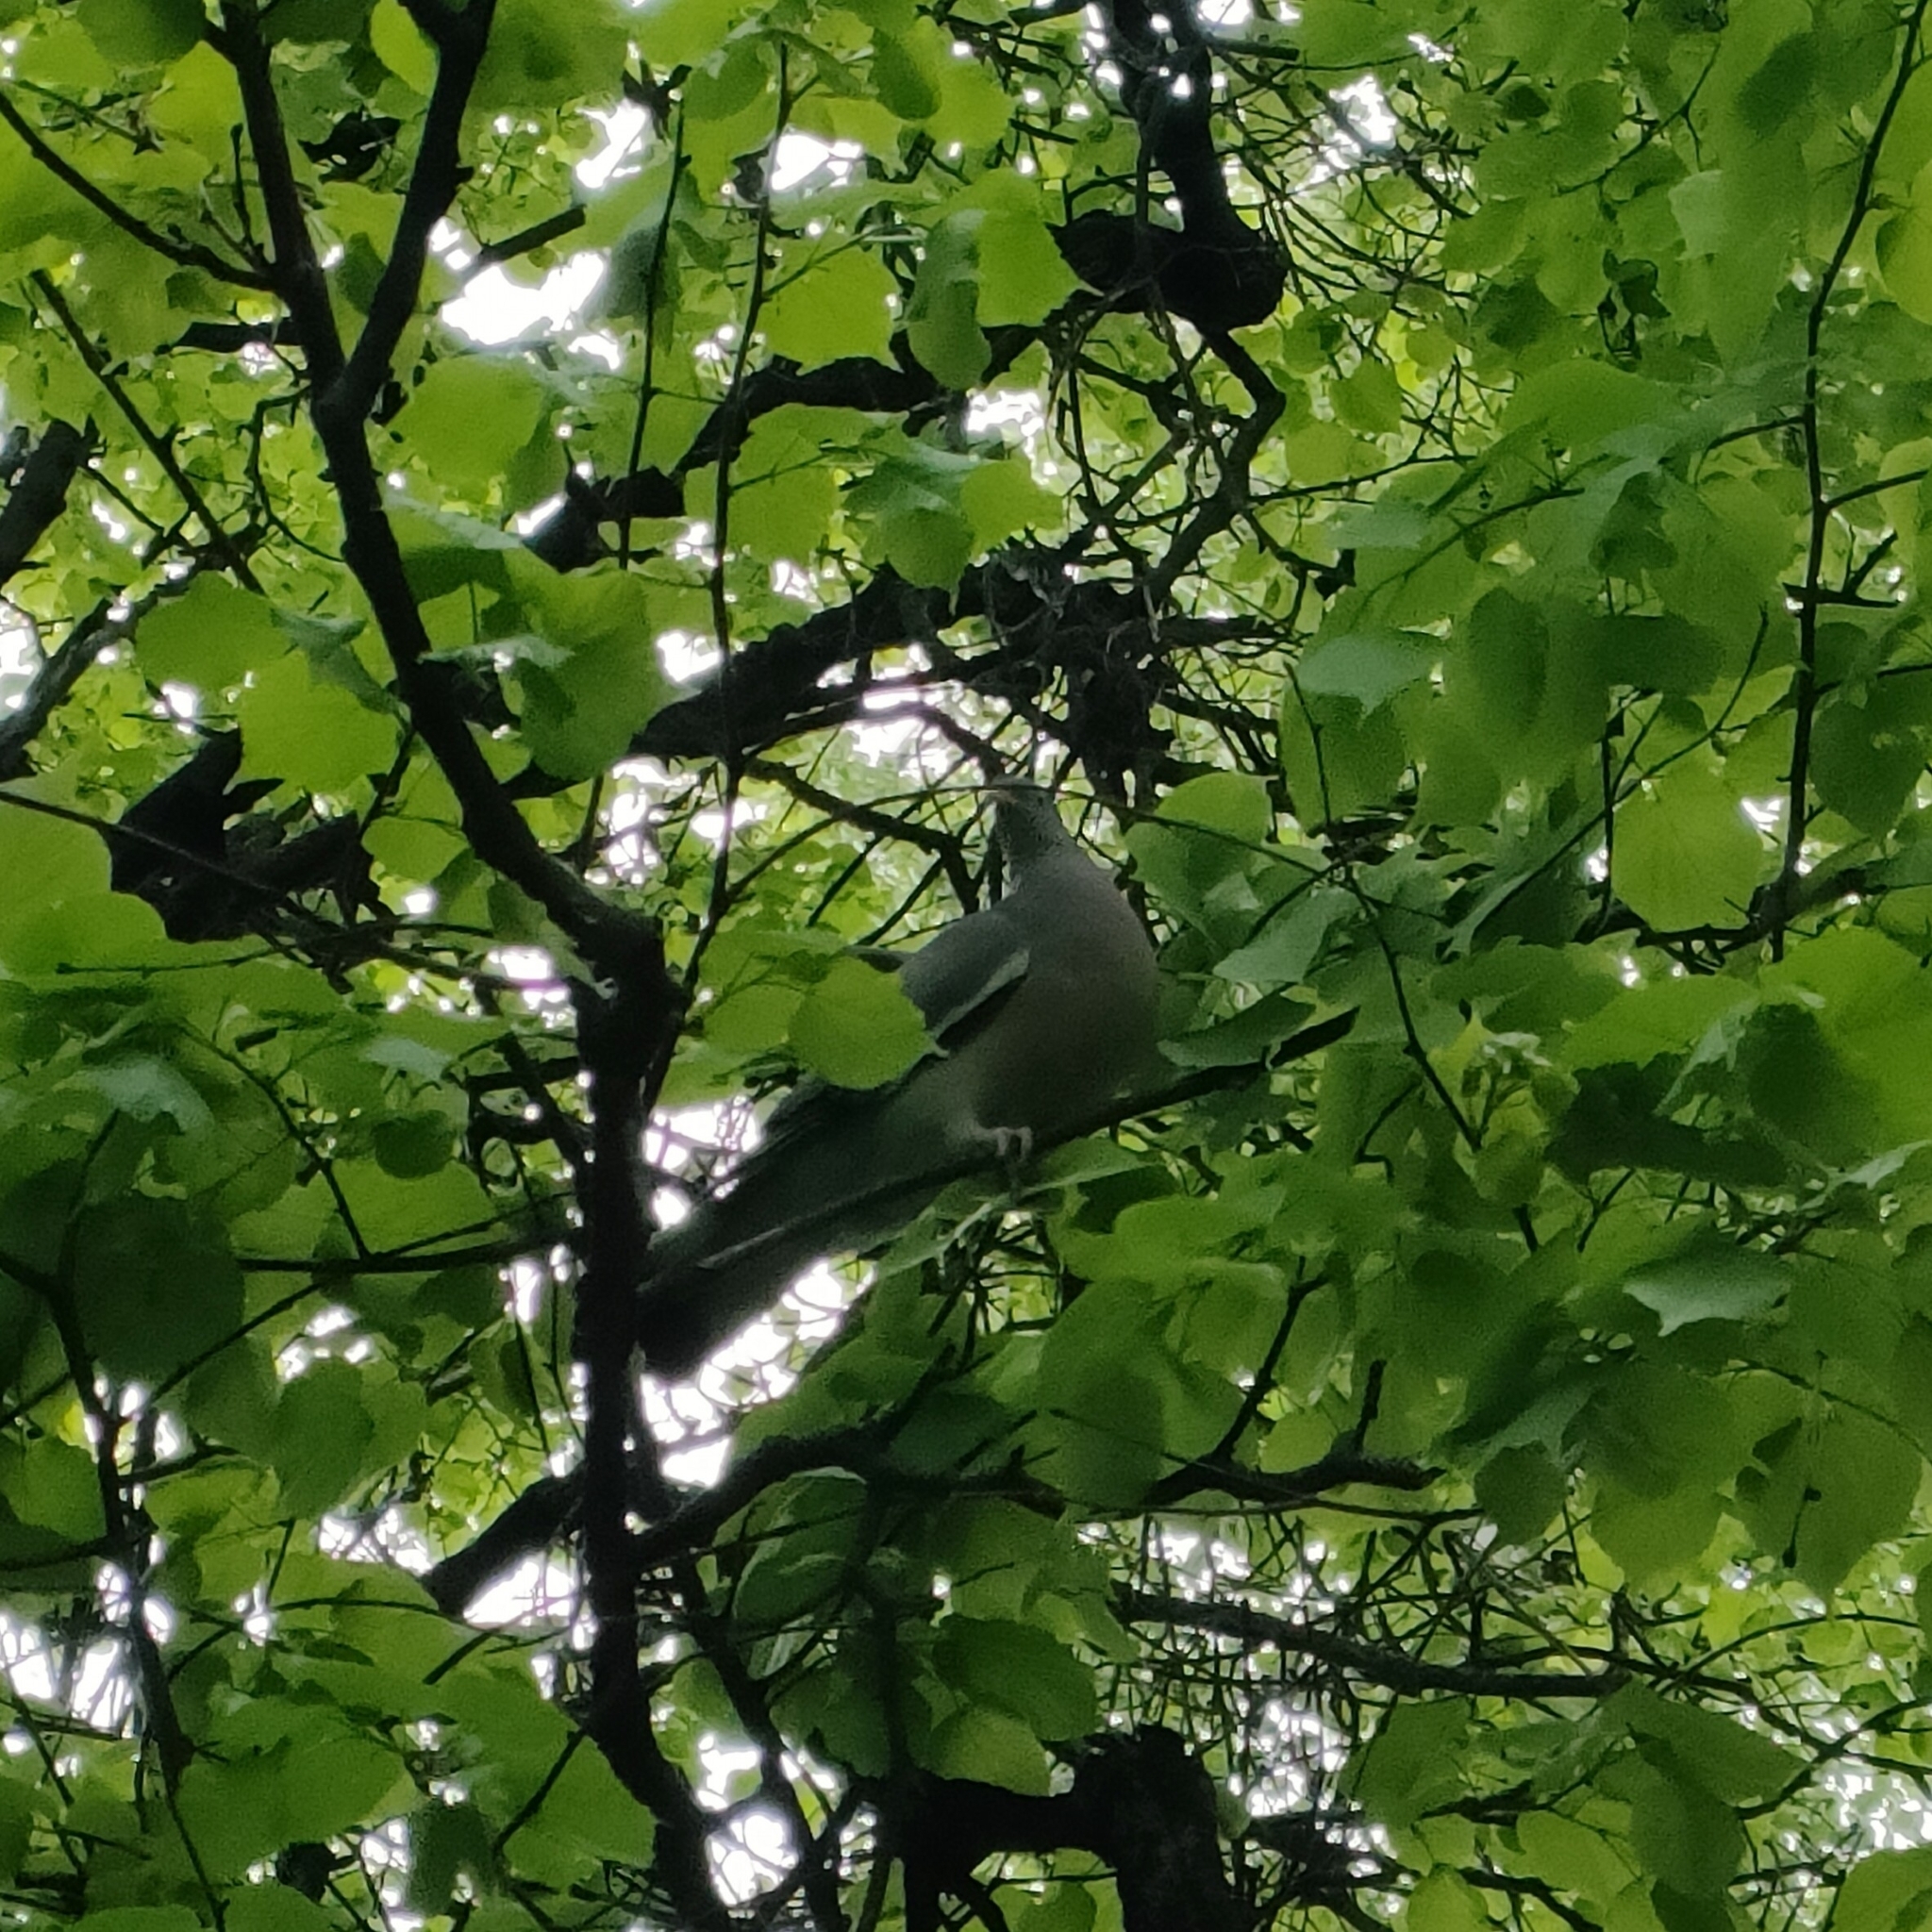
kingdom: Animalia
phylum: Chordata
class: Aves
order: Columbiformes
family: Columbidae
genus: Columba
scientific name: Columba palumbus
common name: Common wood pigeon
